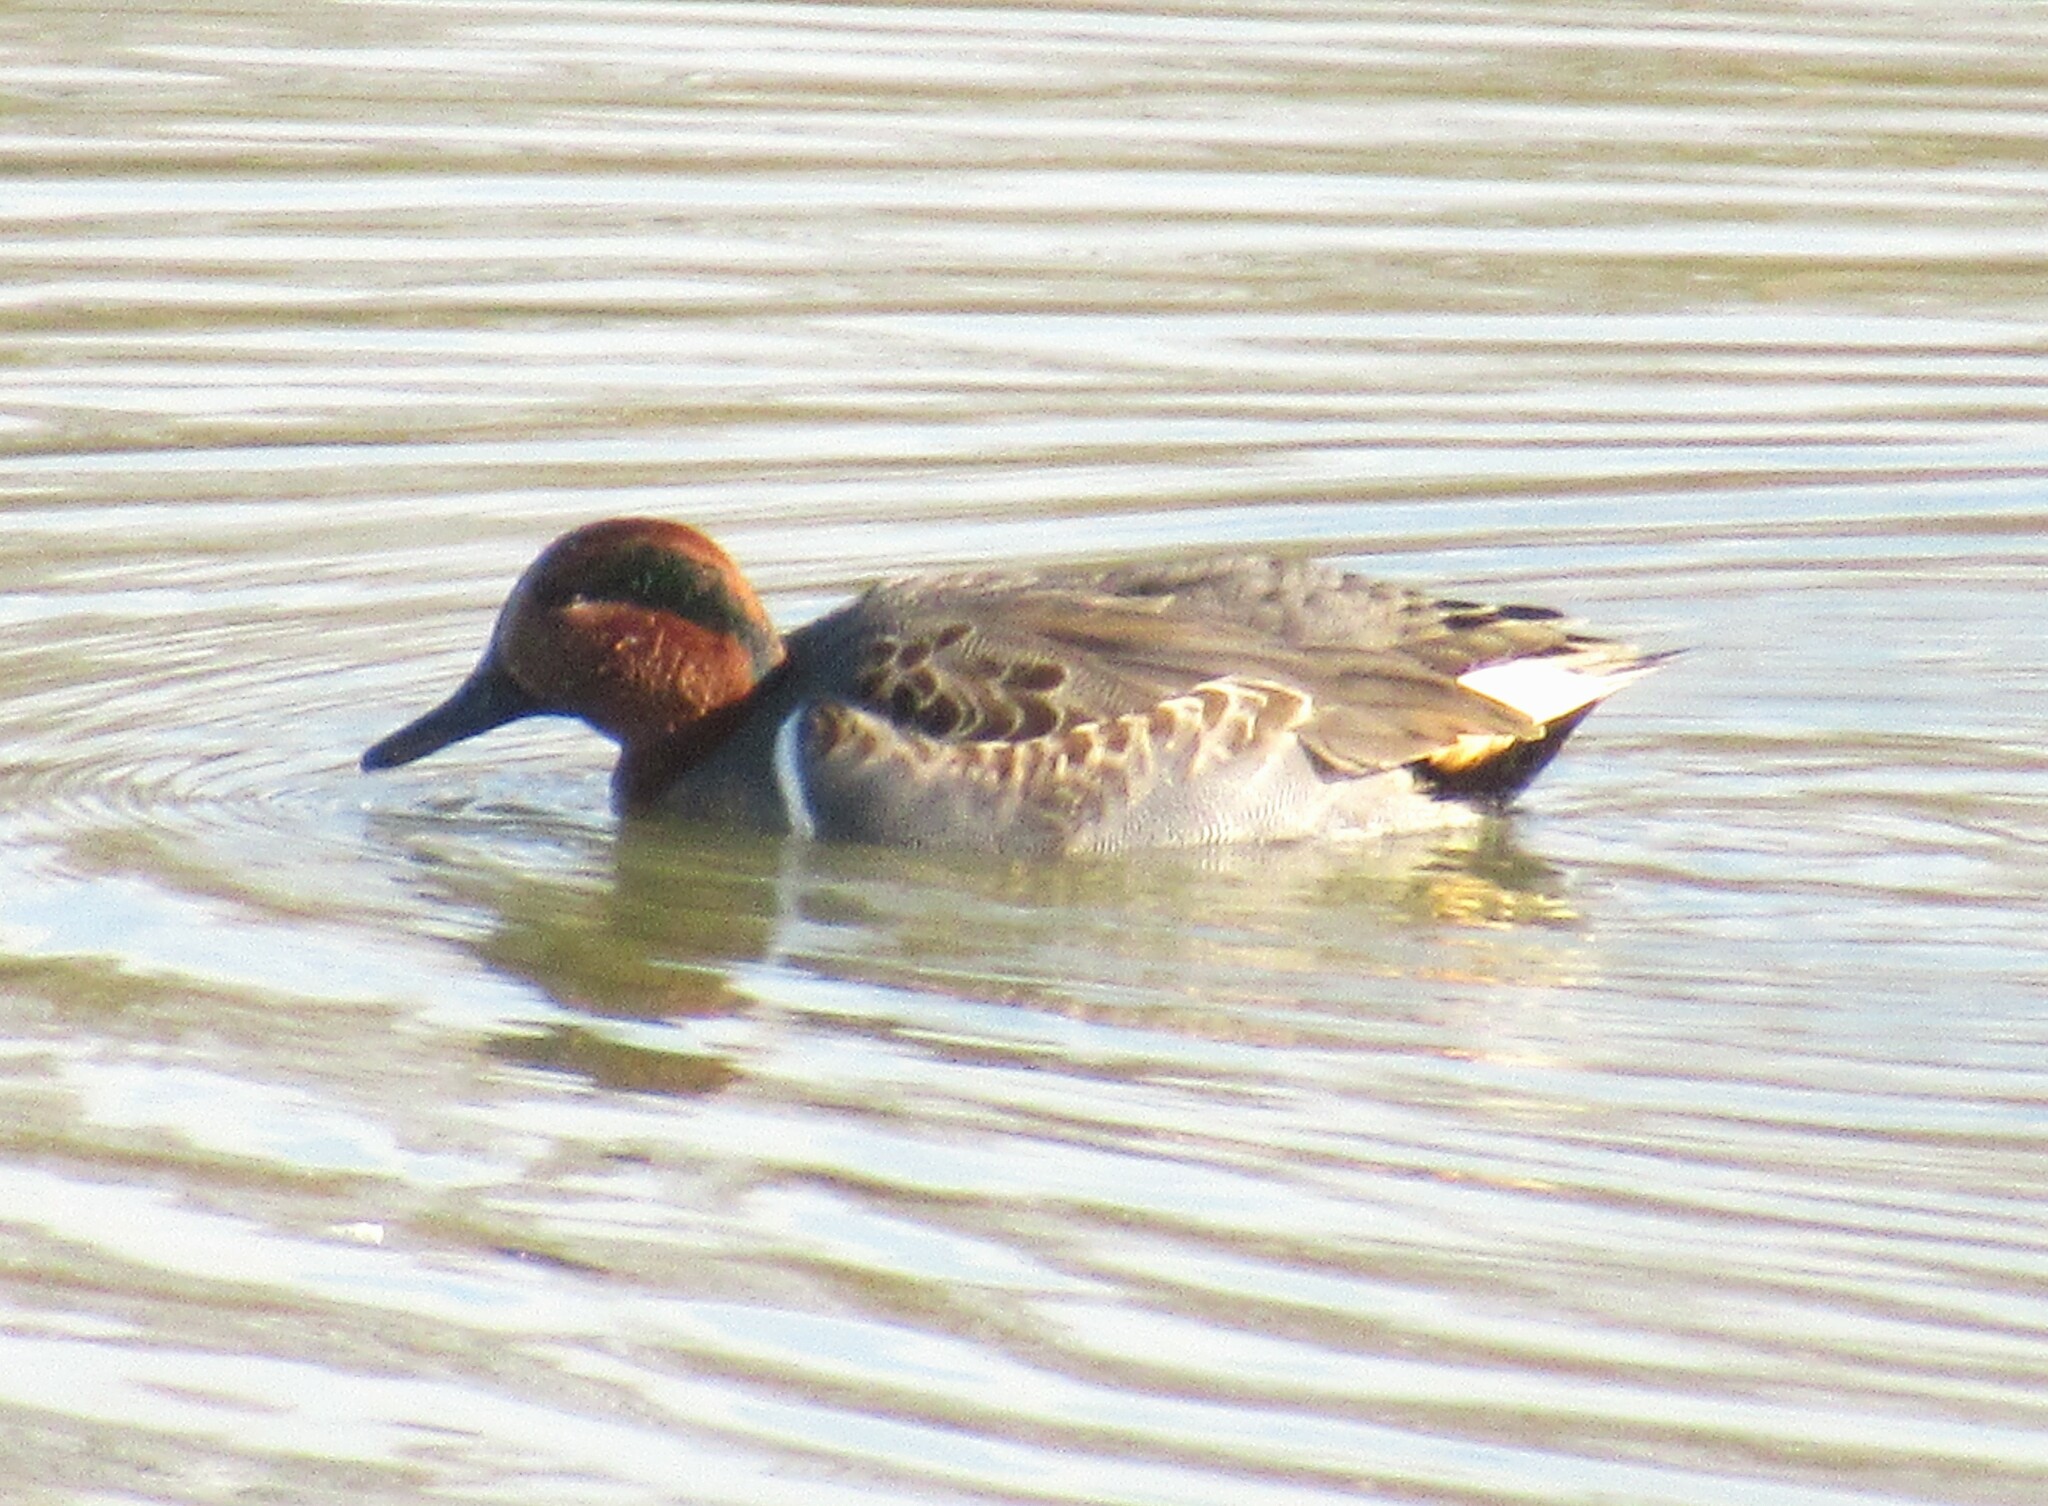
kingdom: Animalia
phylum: Chordata
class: Aves
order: Anseriformes
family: Anatidae
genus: Anas
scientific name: Anas crecca
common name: Eurasian teal
